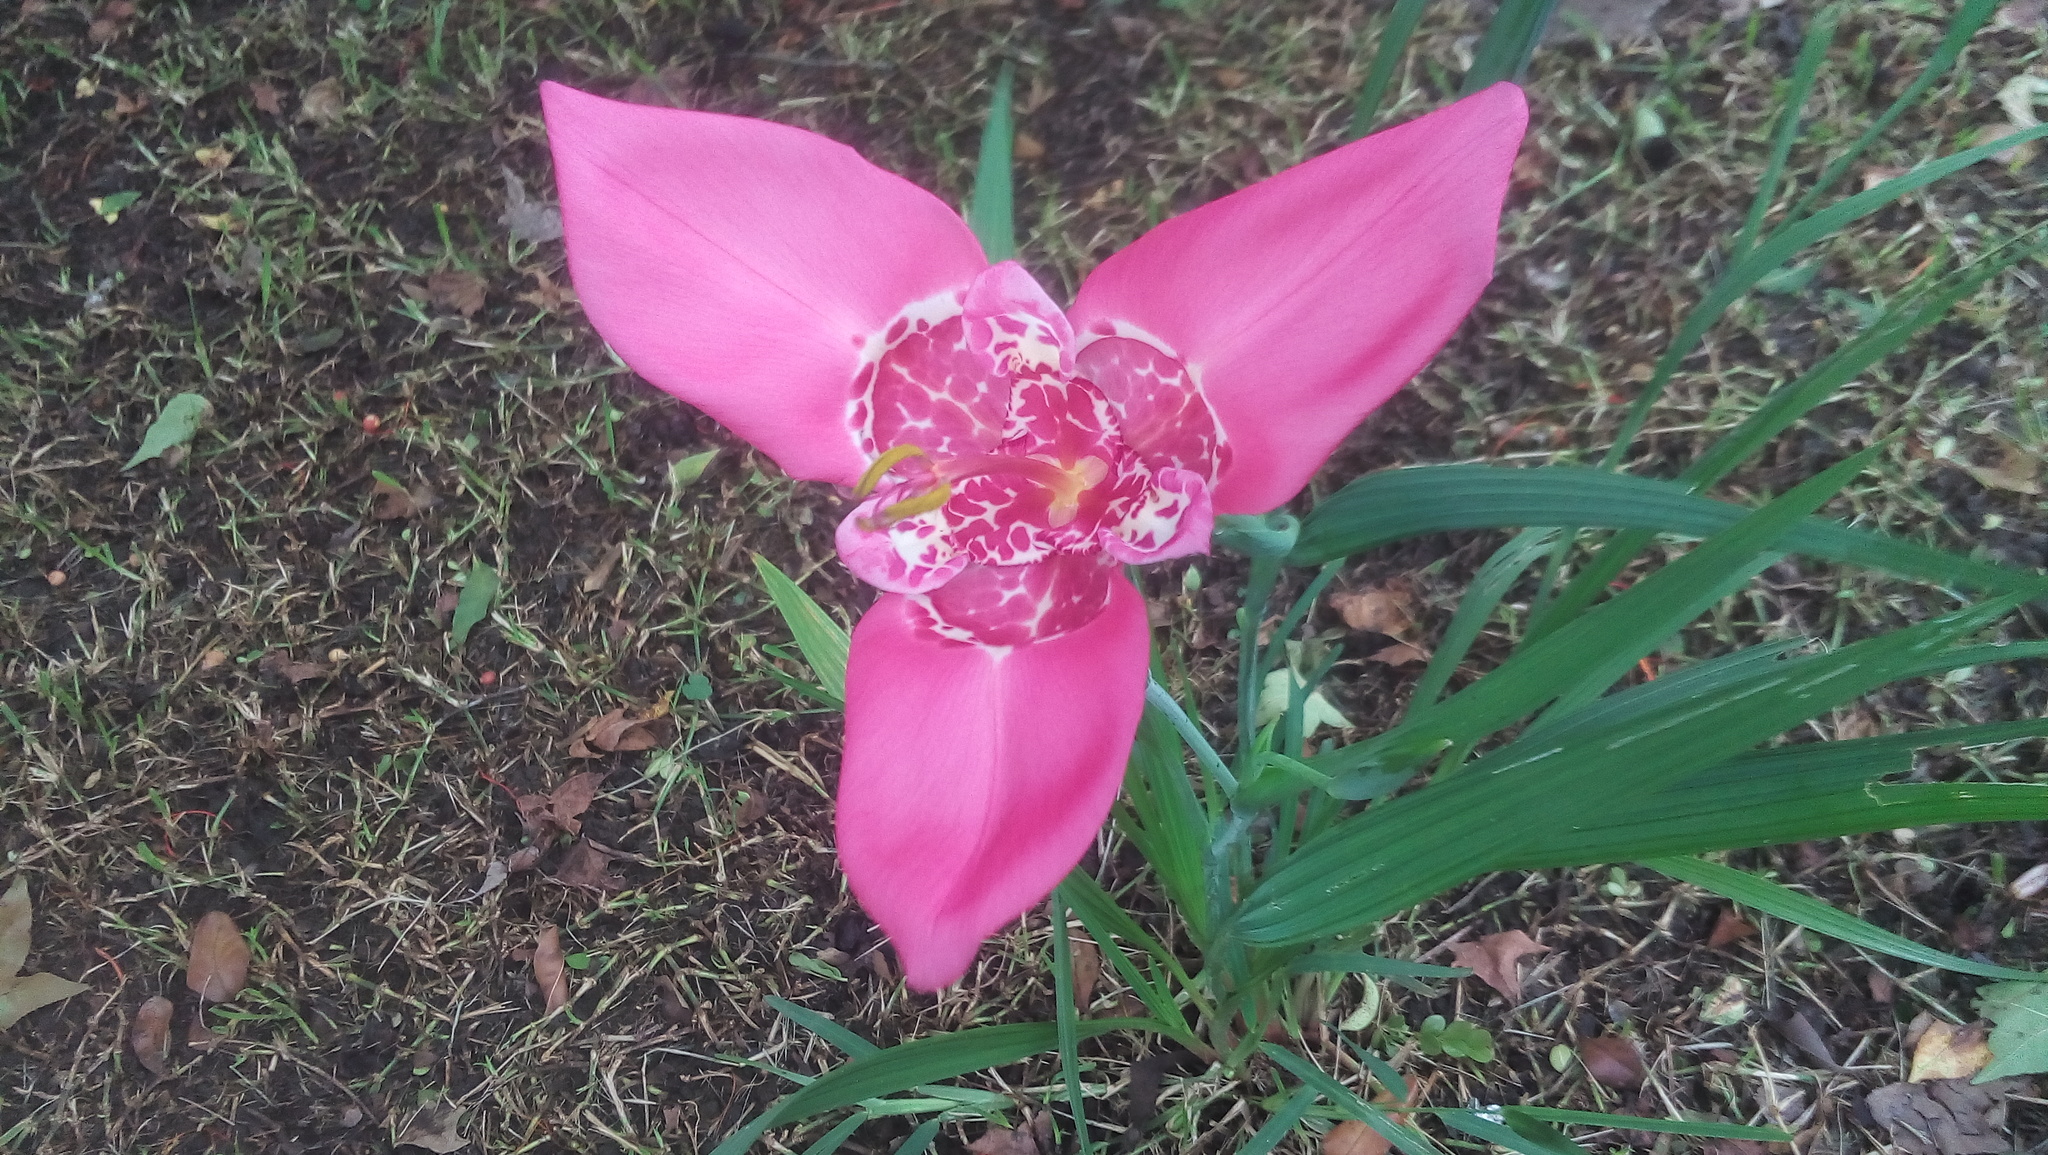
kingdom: Plantae
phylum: Tracheophyta
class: Liliopsida
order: Asparagales
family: Iridaceae
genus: Tigridia
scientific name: Tigridia pavonia
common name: Peacock-flower
